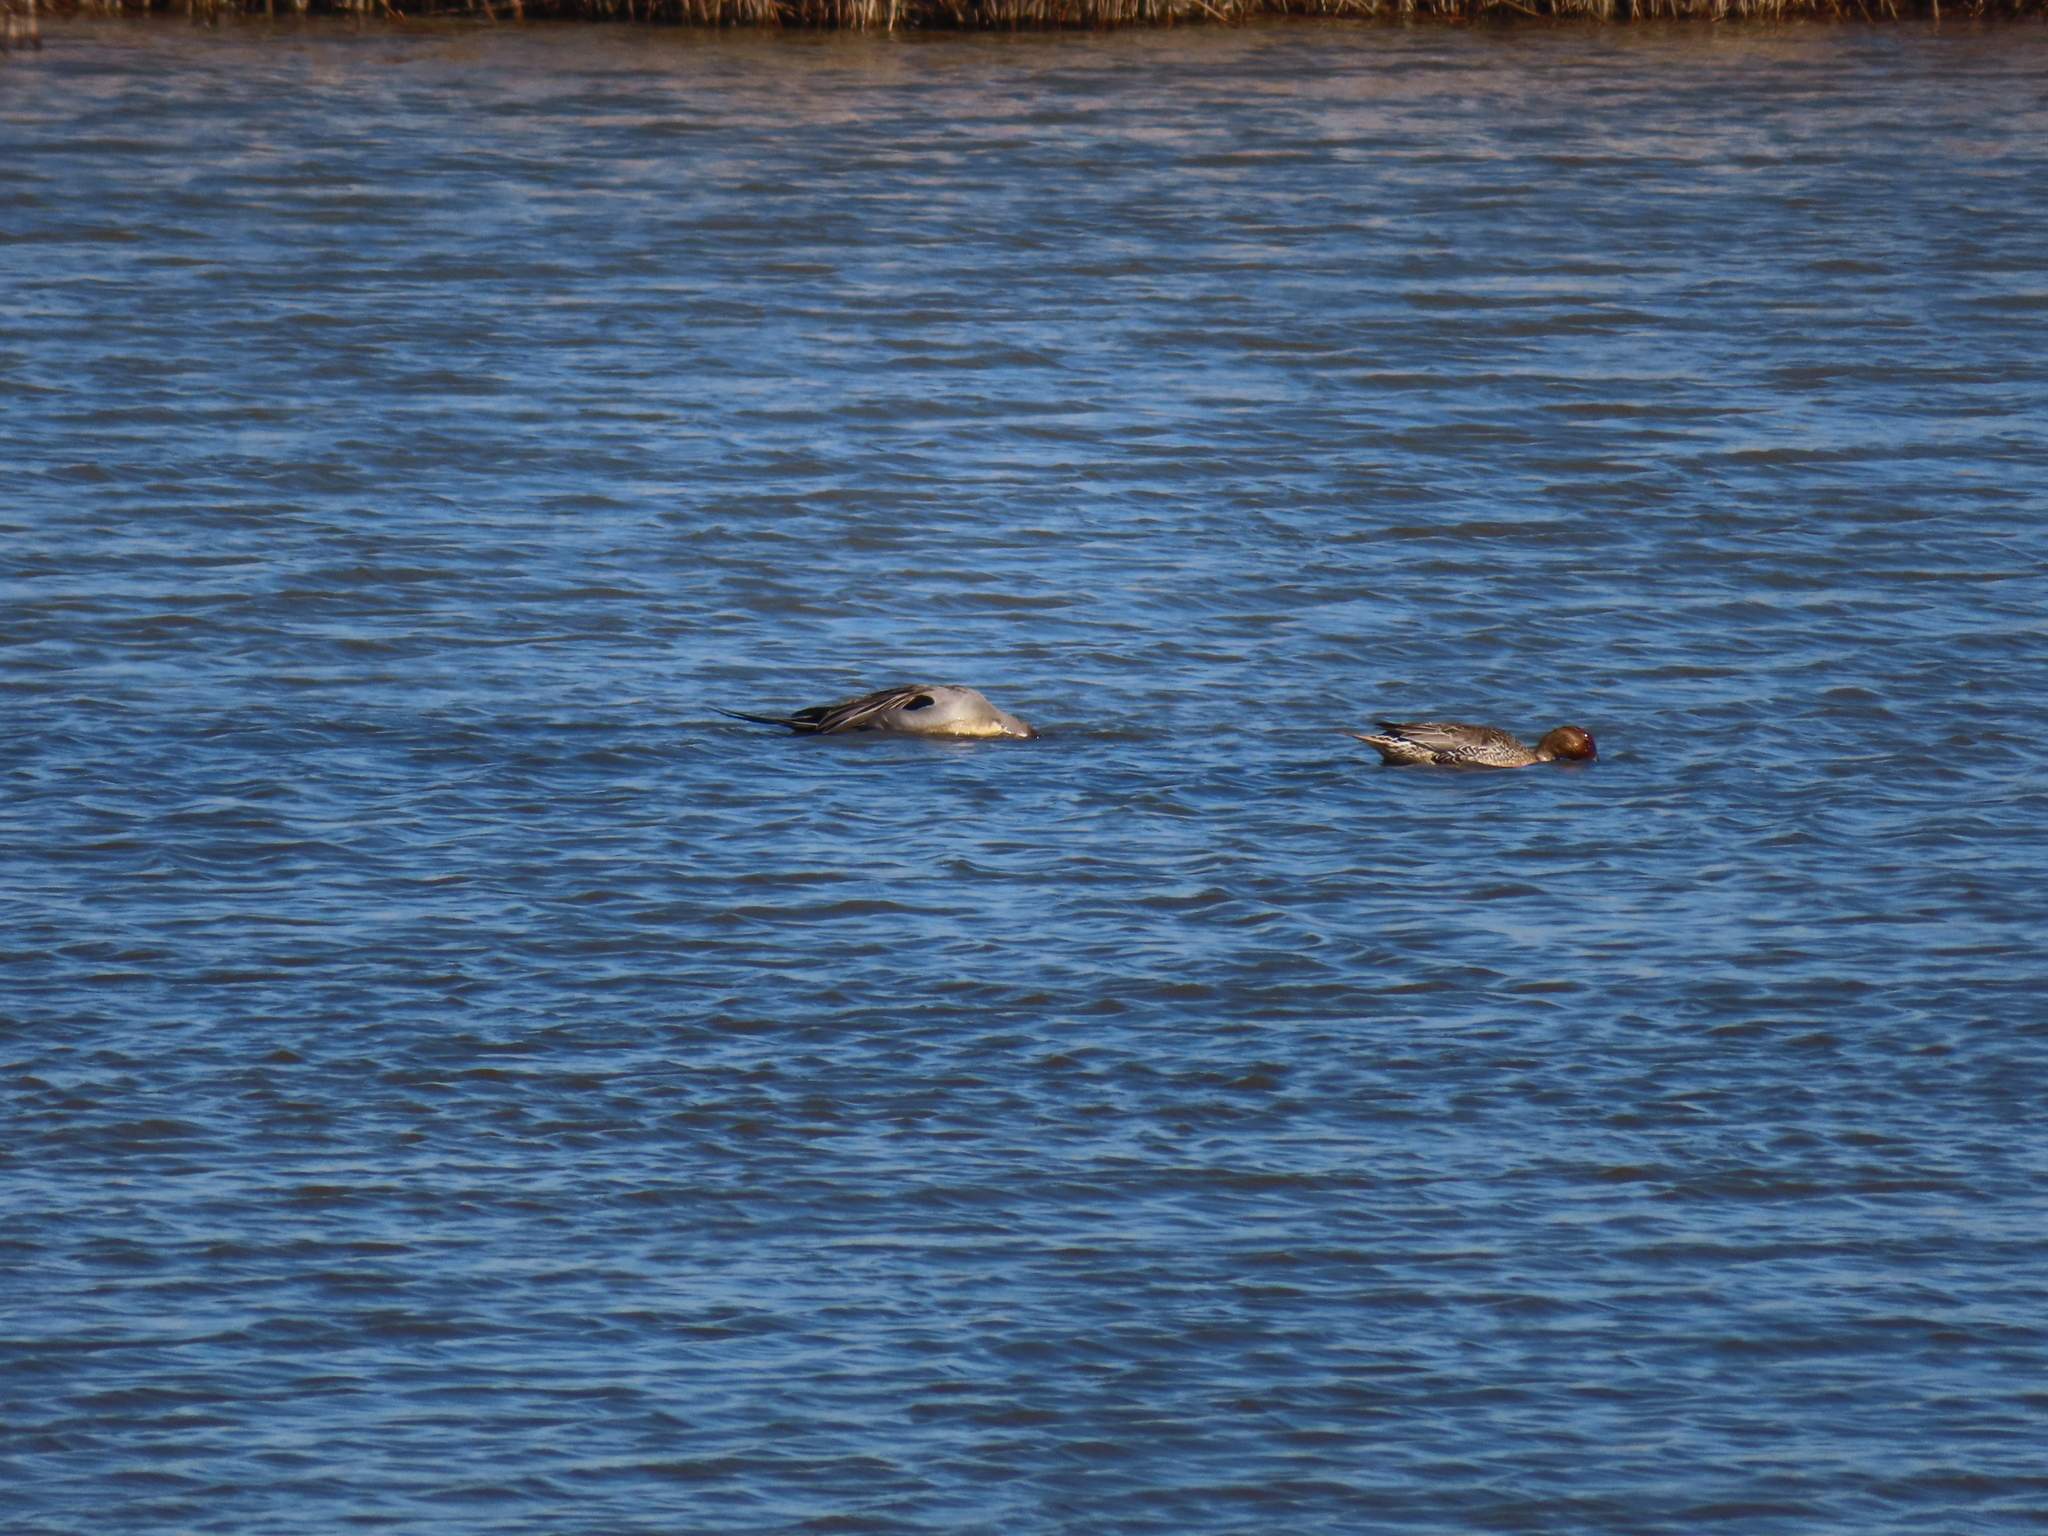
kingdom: Animalia
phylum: Chordata
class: Aves
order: Anseriformes
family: Anatidae
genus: Anas
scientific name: Anas acuta
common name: Northern pintail
